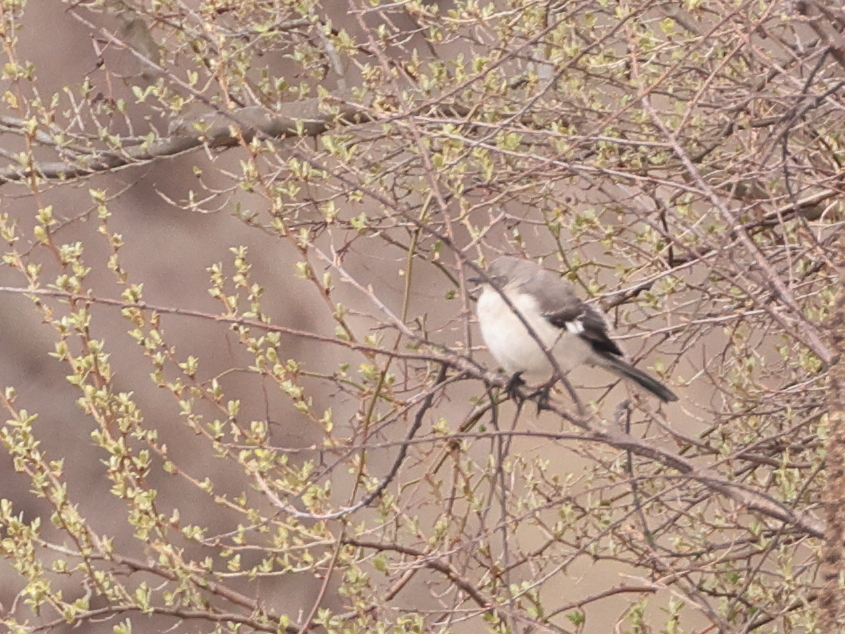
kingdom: Animalia
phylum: Chordata
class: Aves
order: Passeriformes
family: Mimidae
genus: Mimus
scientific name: Mimus polyglottos
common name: Northern mockingbird
